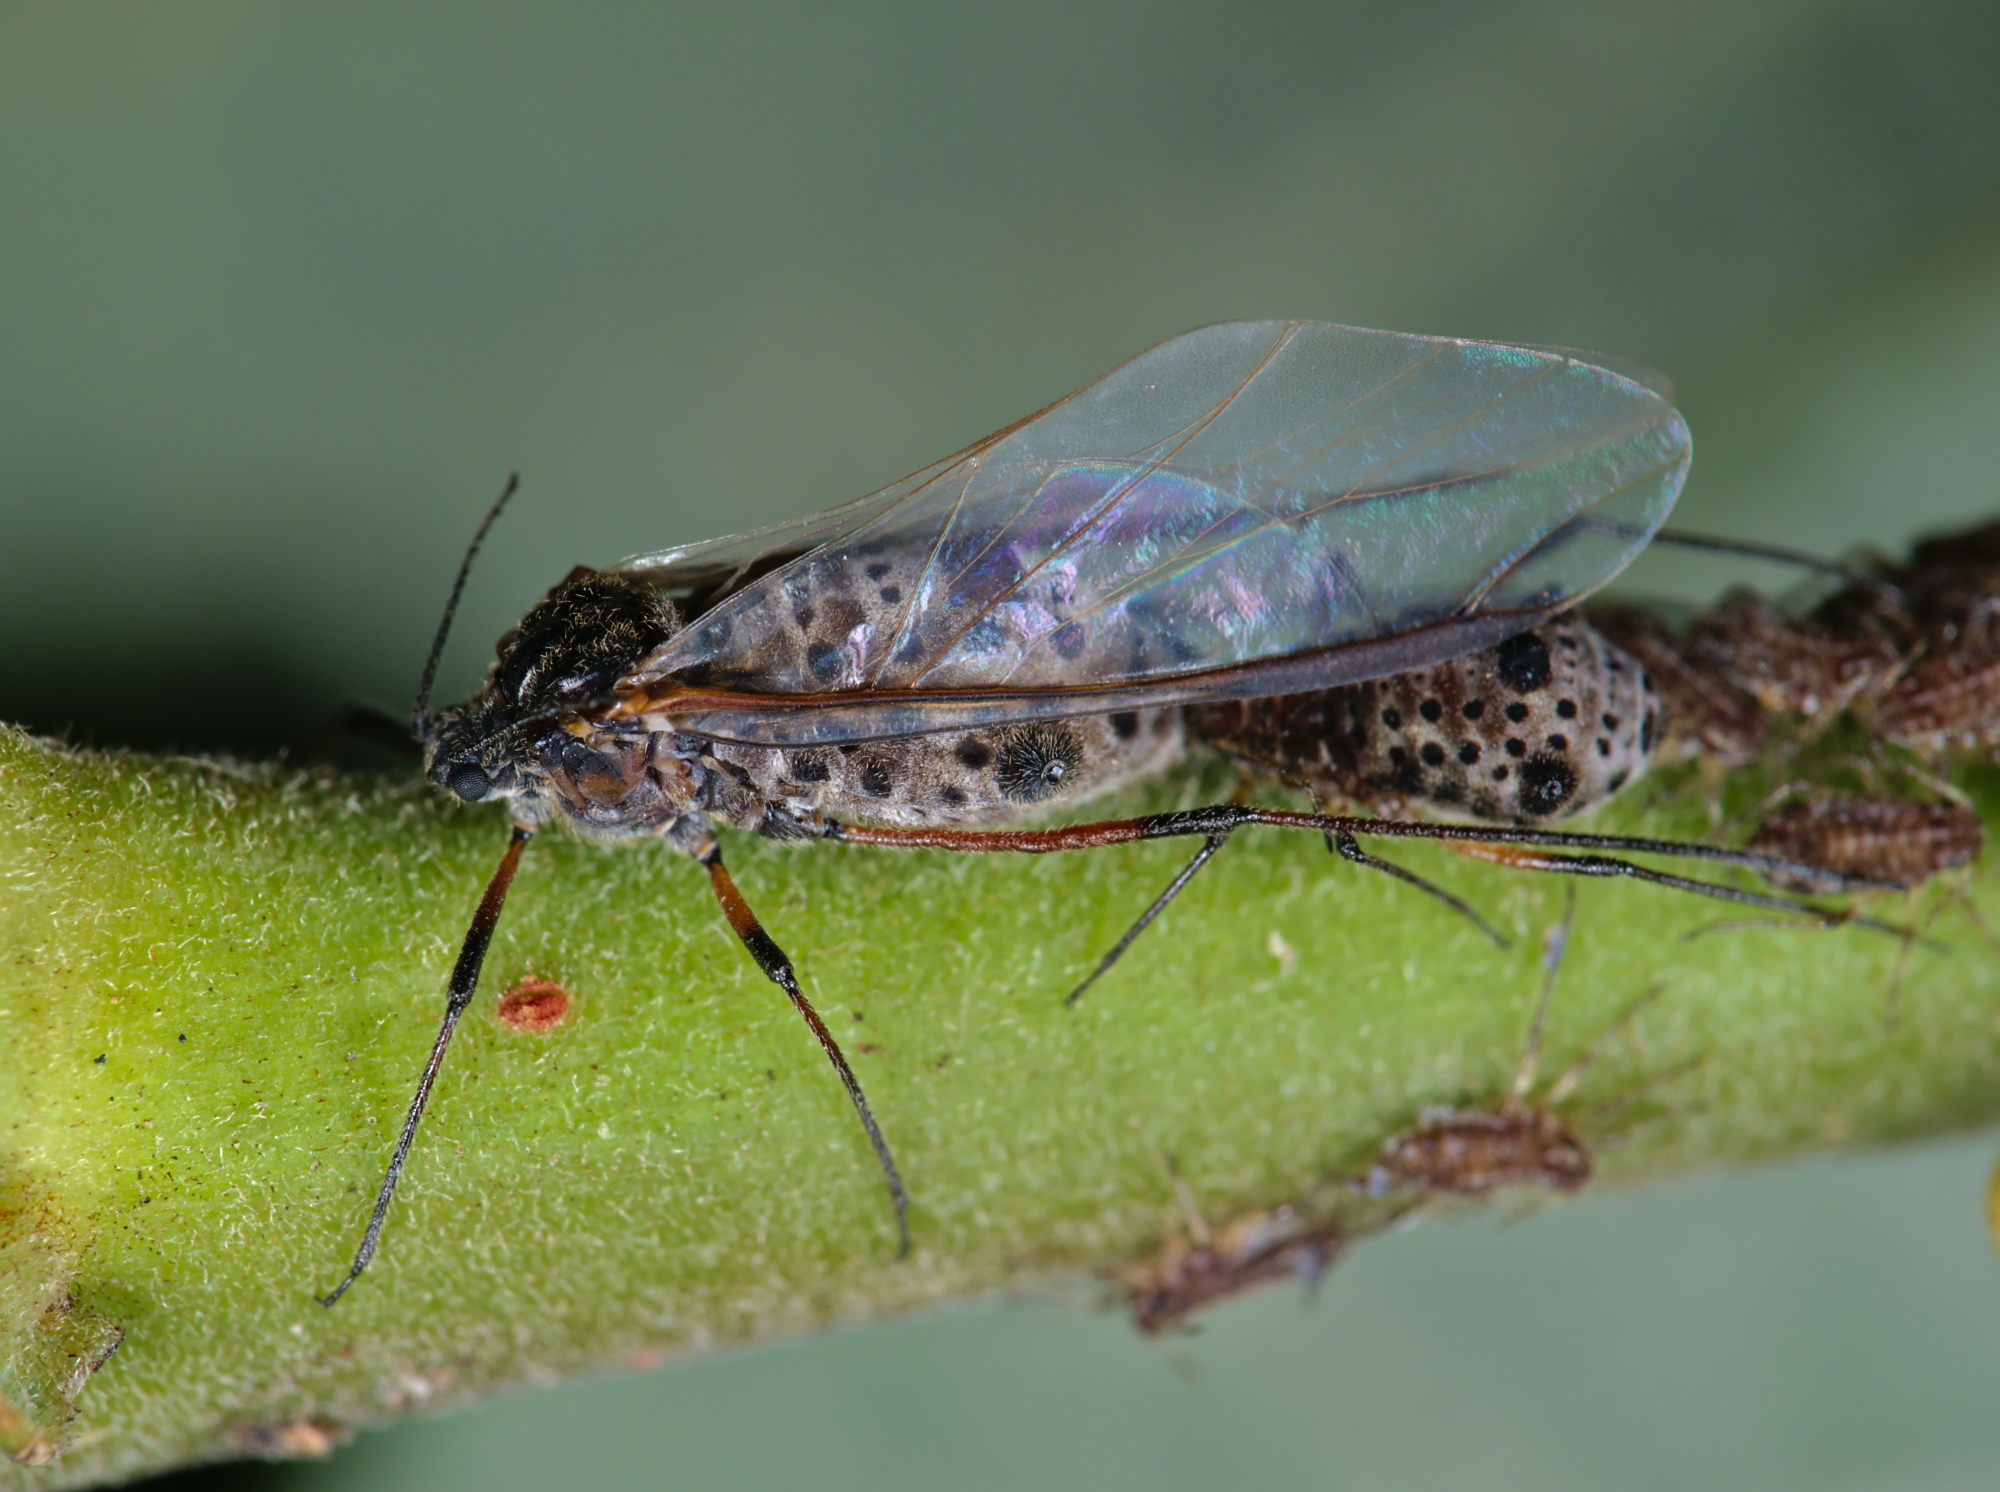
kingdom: Animalia
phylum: Arthropoda
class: Insecta
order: Hemiptera
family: Aphididae
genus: Tuberolachnus
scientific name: Tuberolachnus salignus
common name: Giant willow aphid
